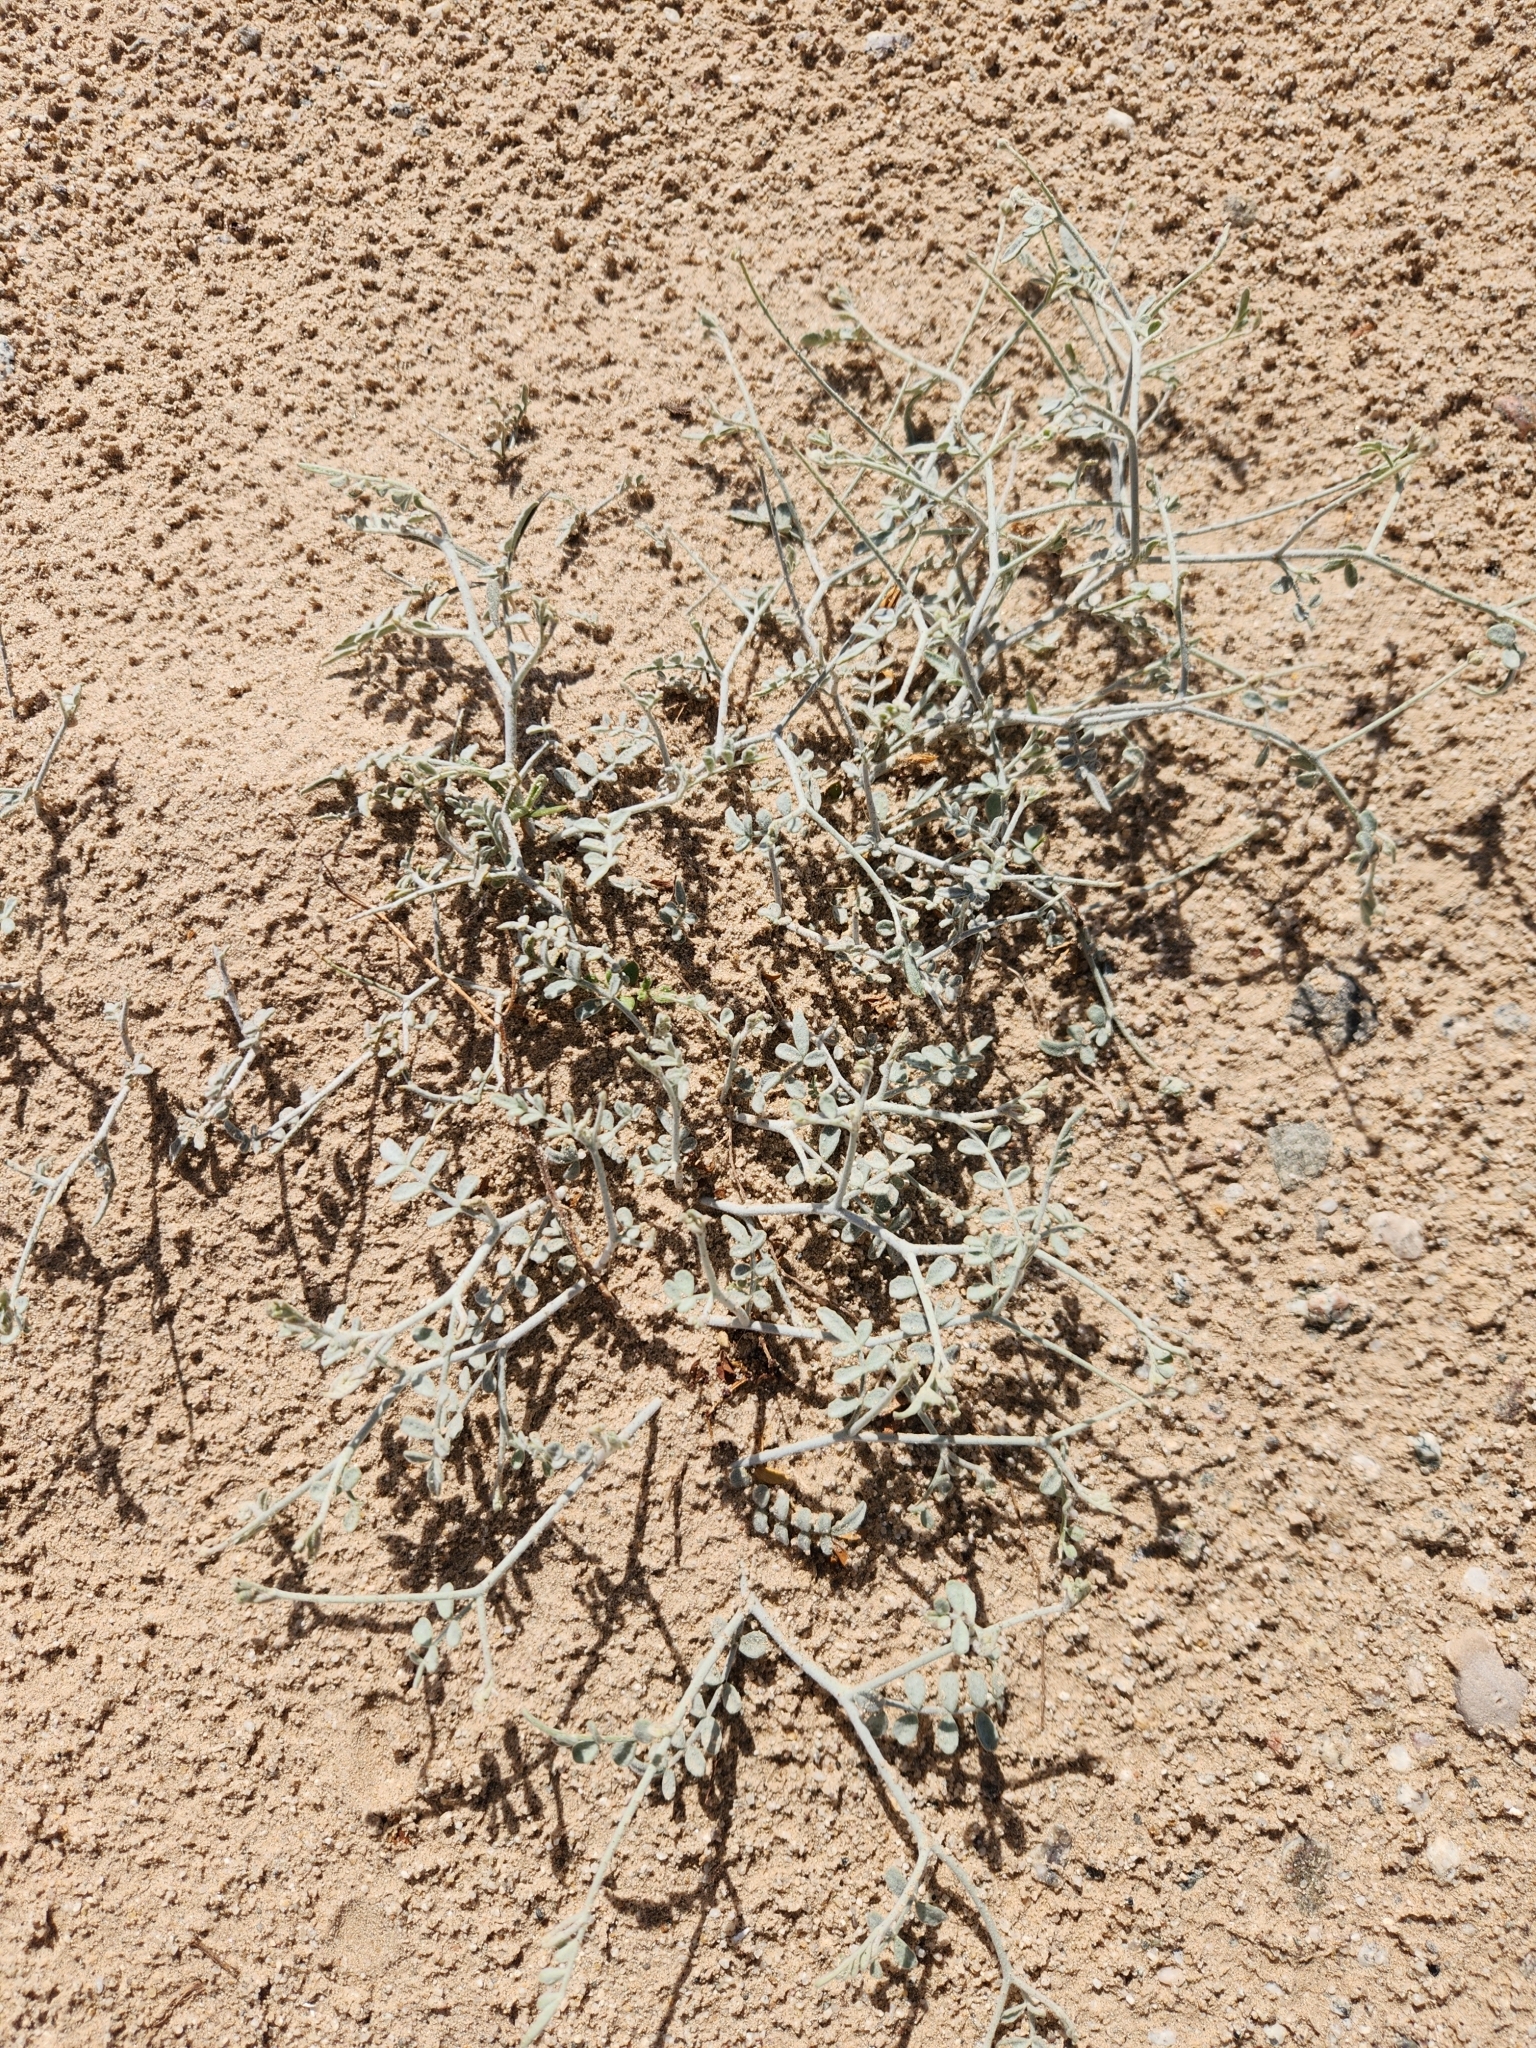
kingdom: Plantae
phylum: Tracheophyta
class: Magnoliopsida
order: Fabales
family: Fabaceae
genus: Psorothamnus
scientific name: Psorothamnus emoryi
